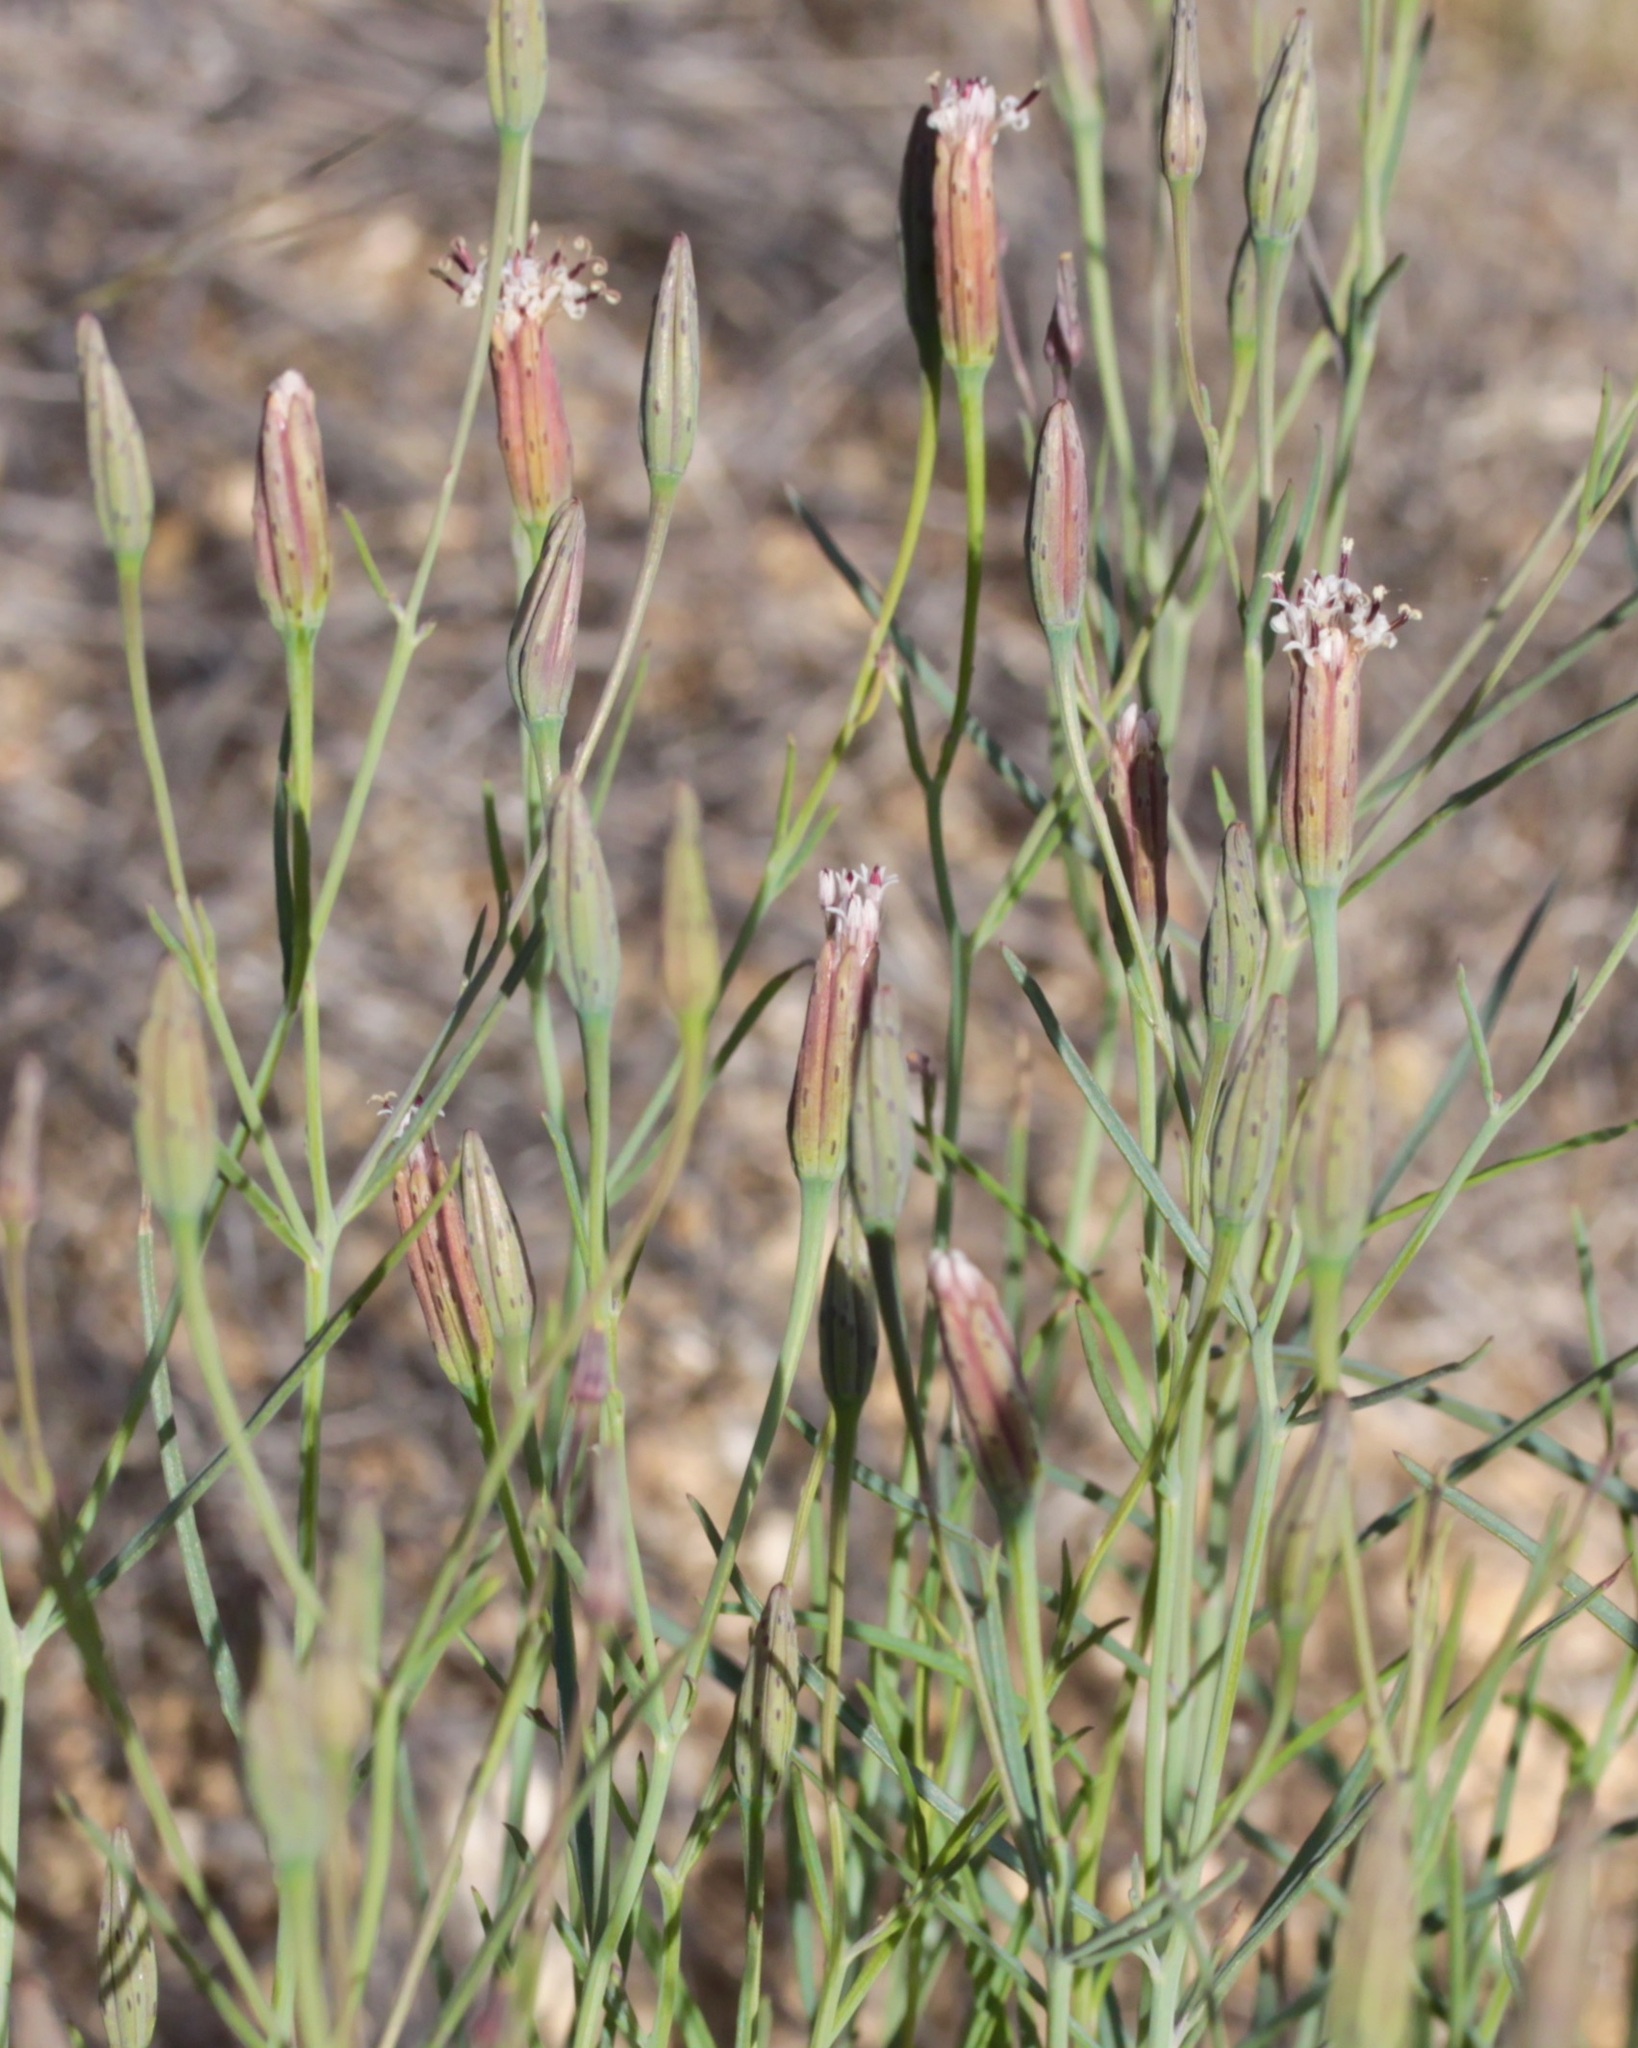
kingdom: Plantae
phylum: Tracheophyta
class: Magnoliopsida
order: Asterales
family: Asteraceae
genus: Porophyllum
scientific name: Porophyllum gracile
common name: Odora
